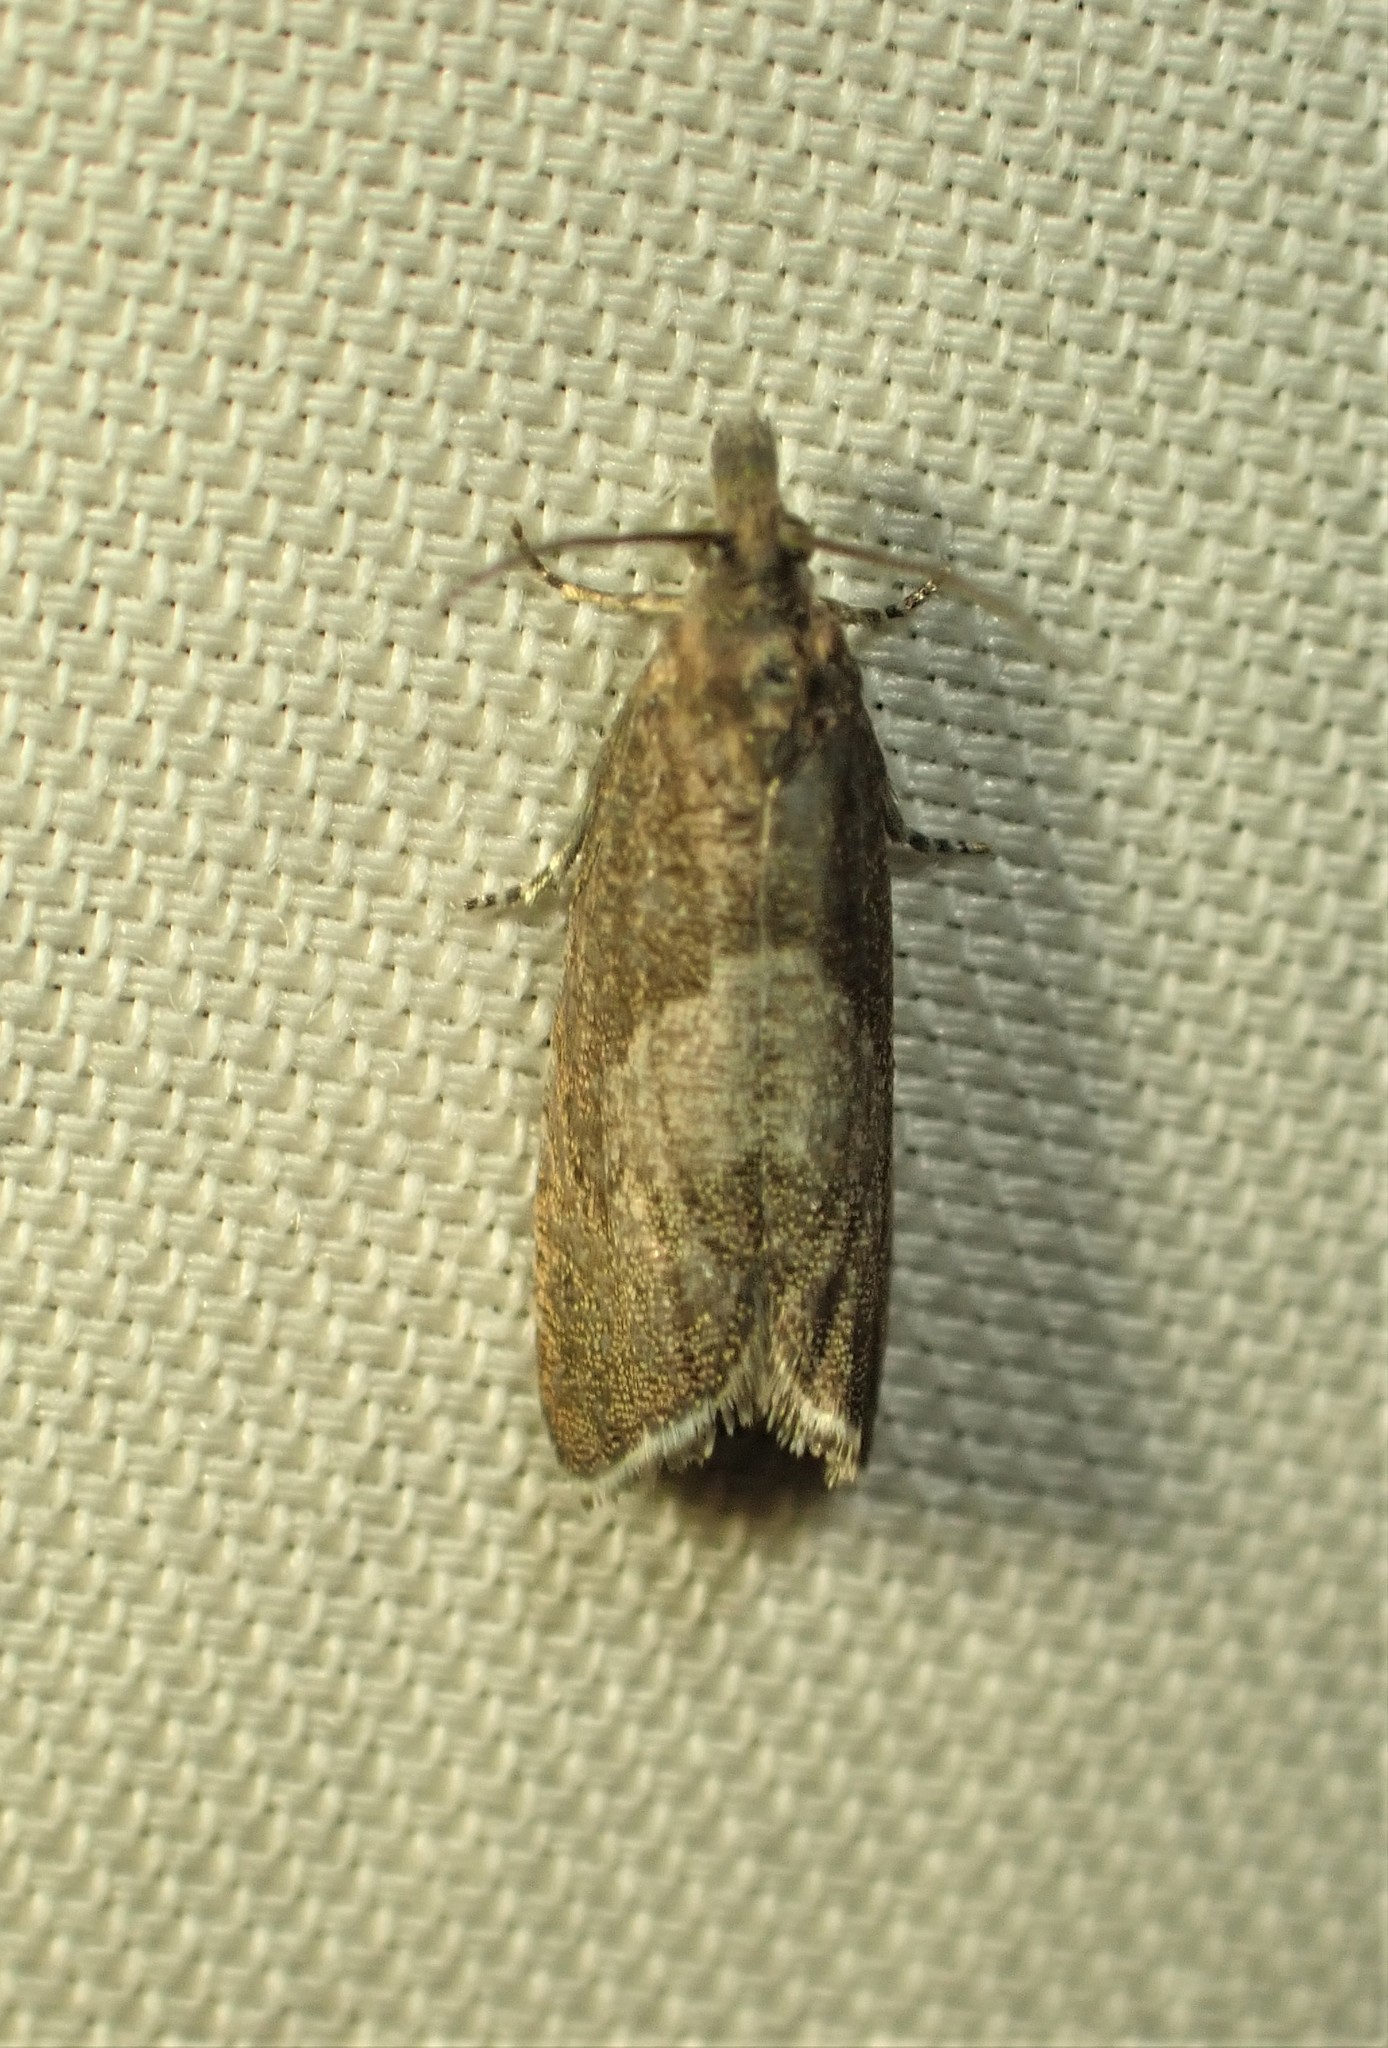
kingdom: Animalia
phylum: Arthropoda
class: Insecta
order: Lepidoptera
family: Tortricidae
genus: Dichrorampha
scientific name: Dichrorampha acuminatana
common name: Sharp-winged drill
